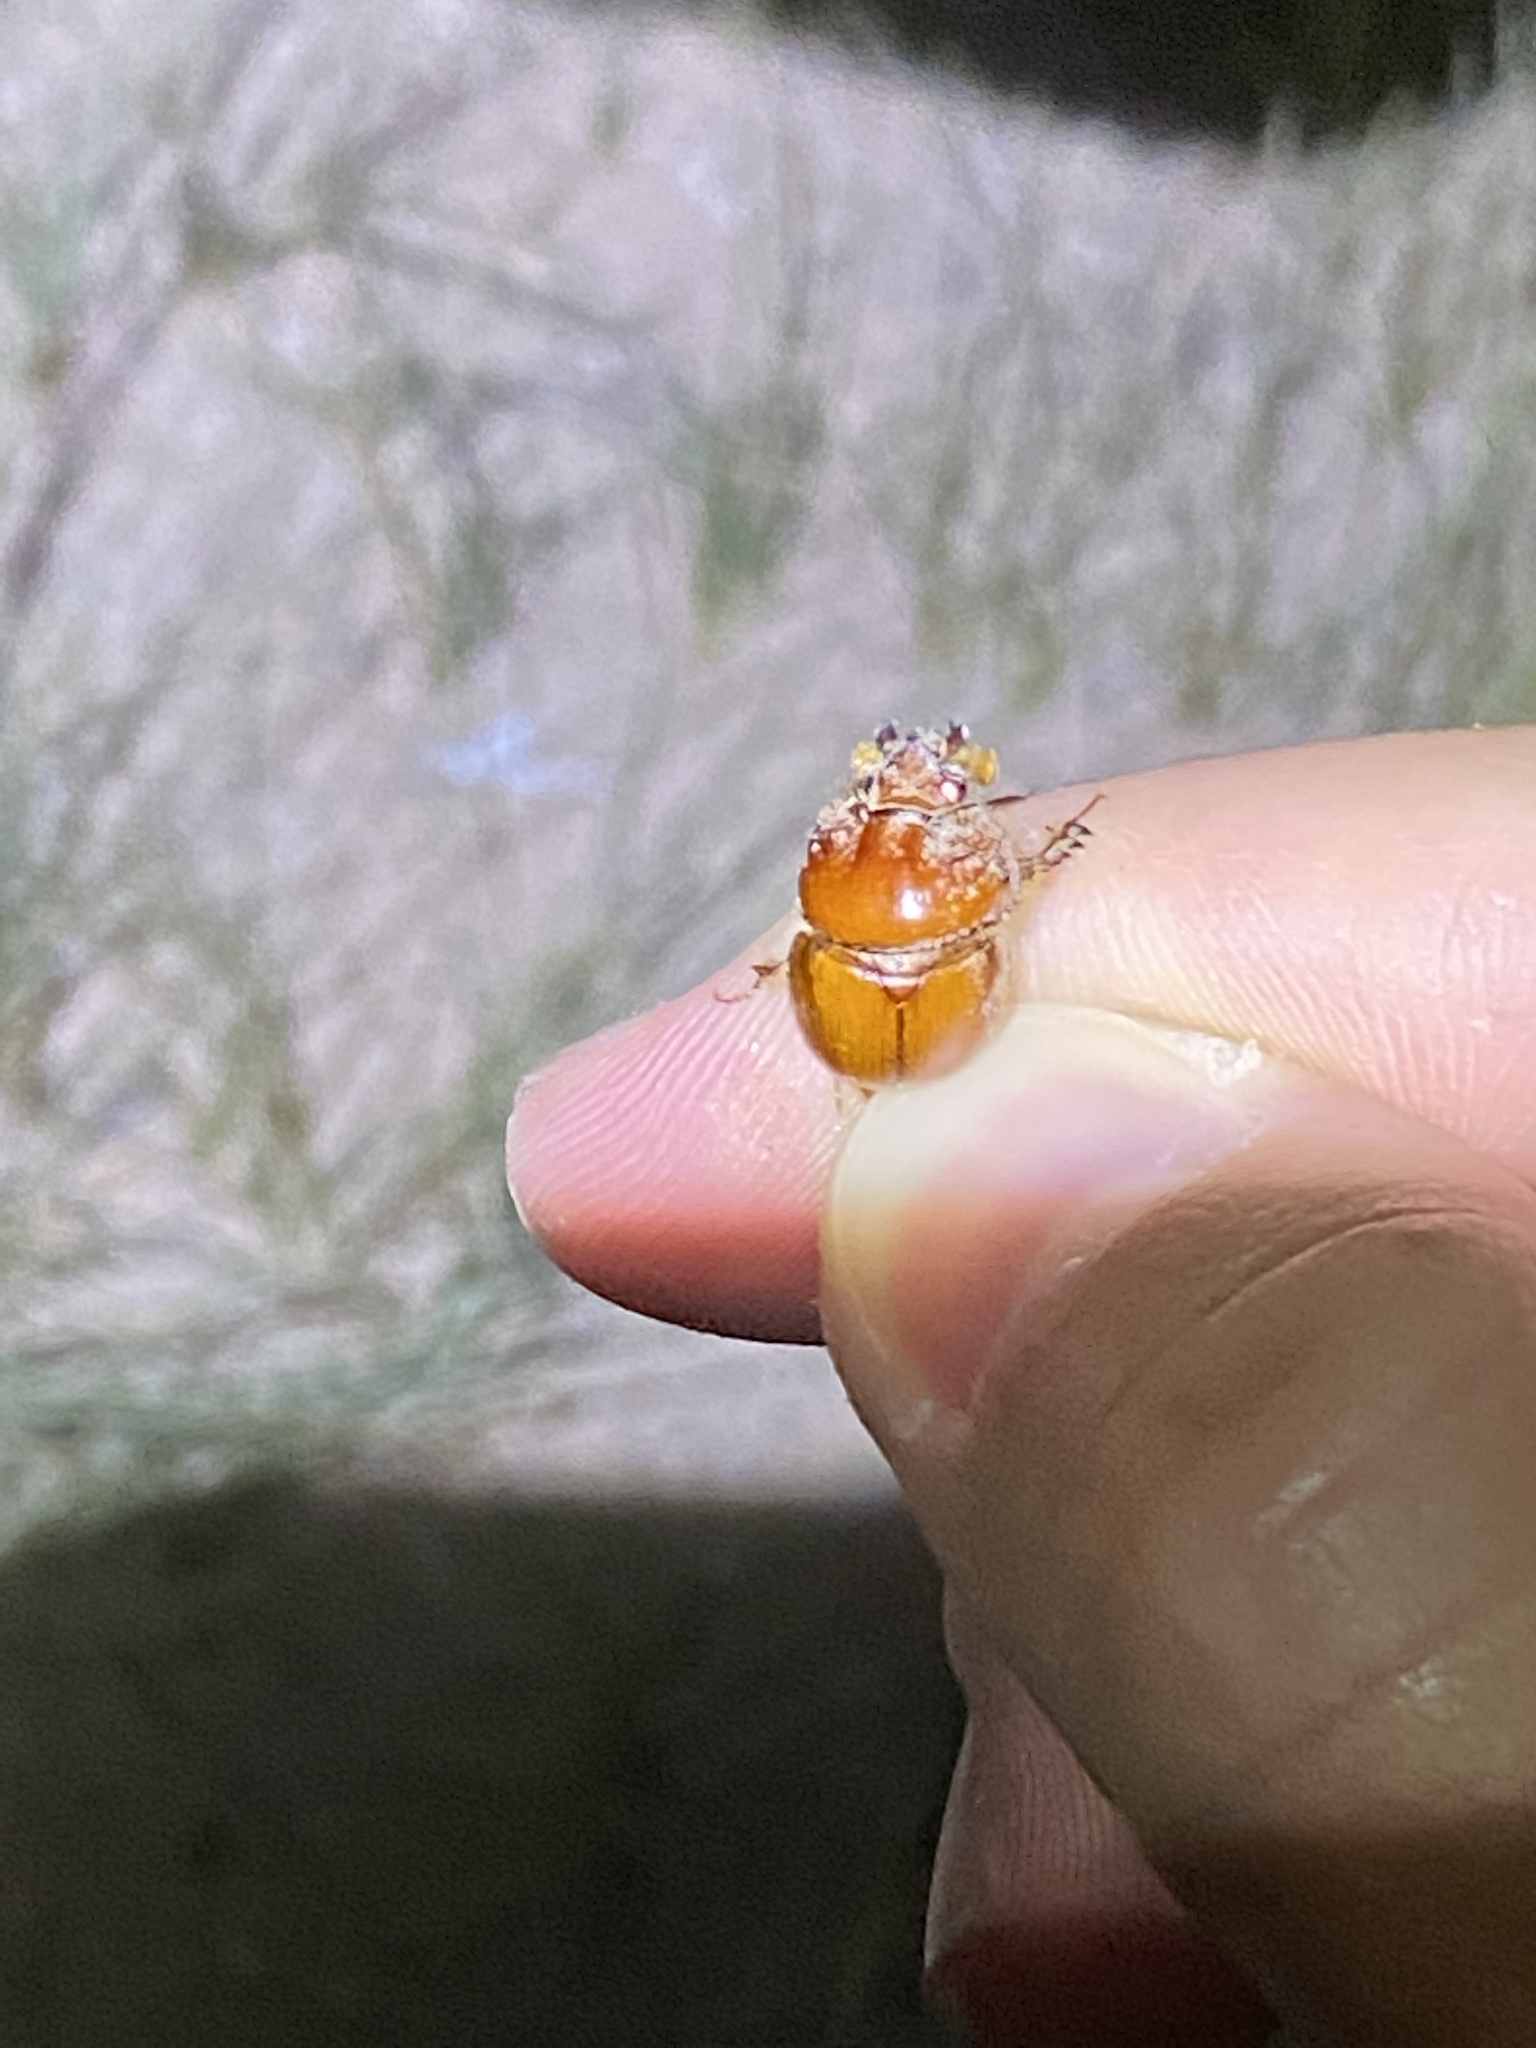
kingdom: Animalia
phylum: Arthropoda
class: Insecta
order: Coleoptera
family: Geotrupidae
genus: Bolbocerastes
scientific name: Bolbocerastes imperialis
